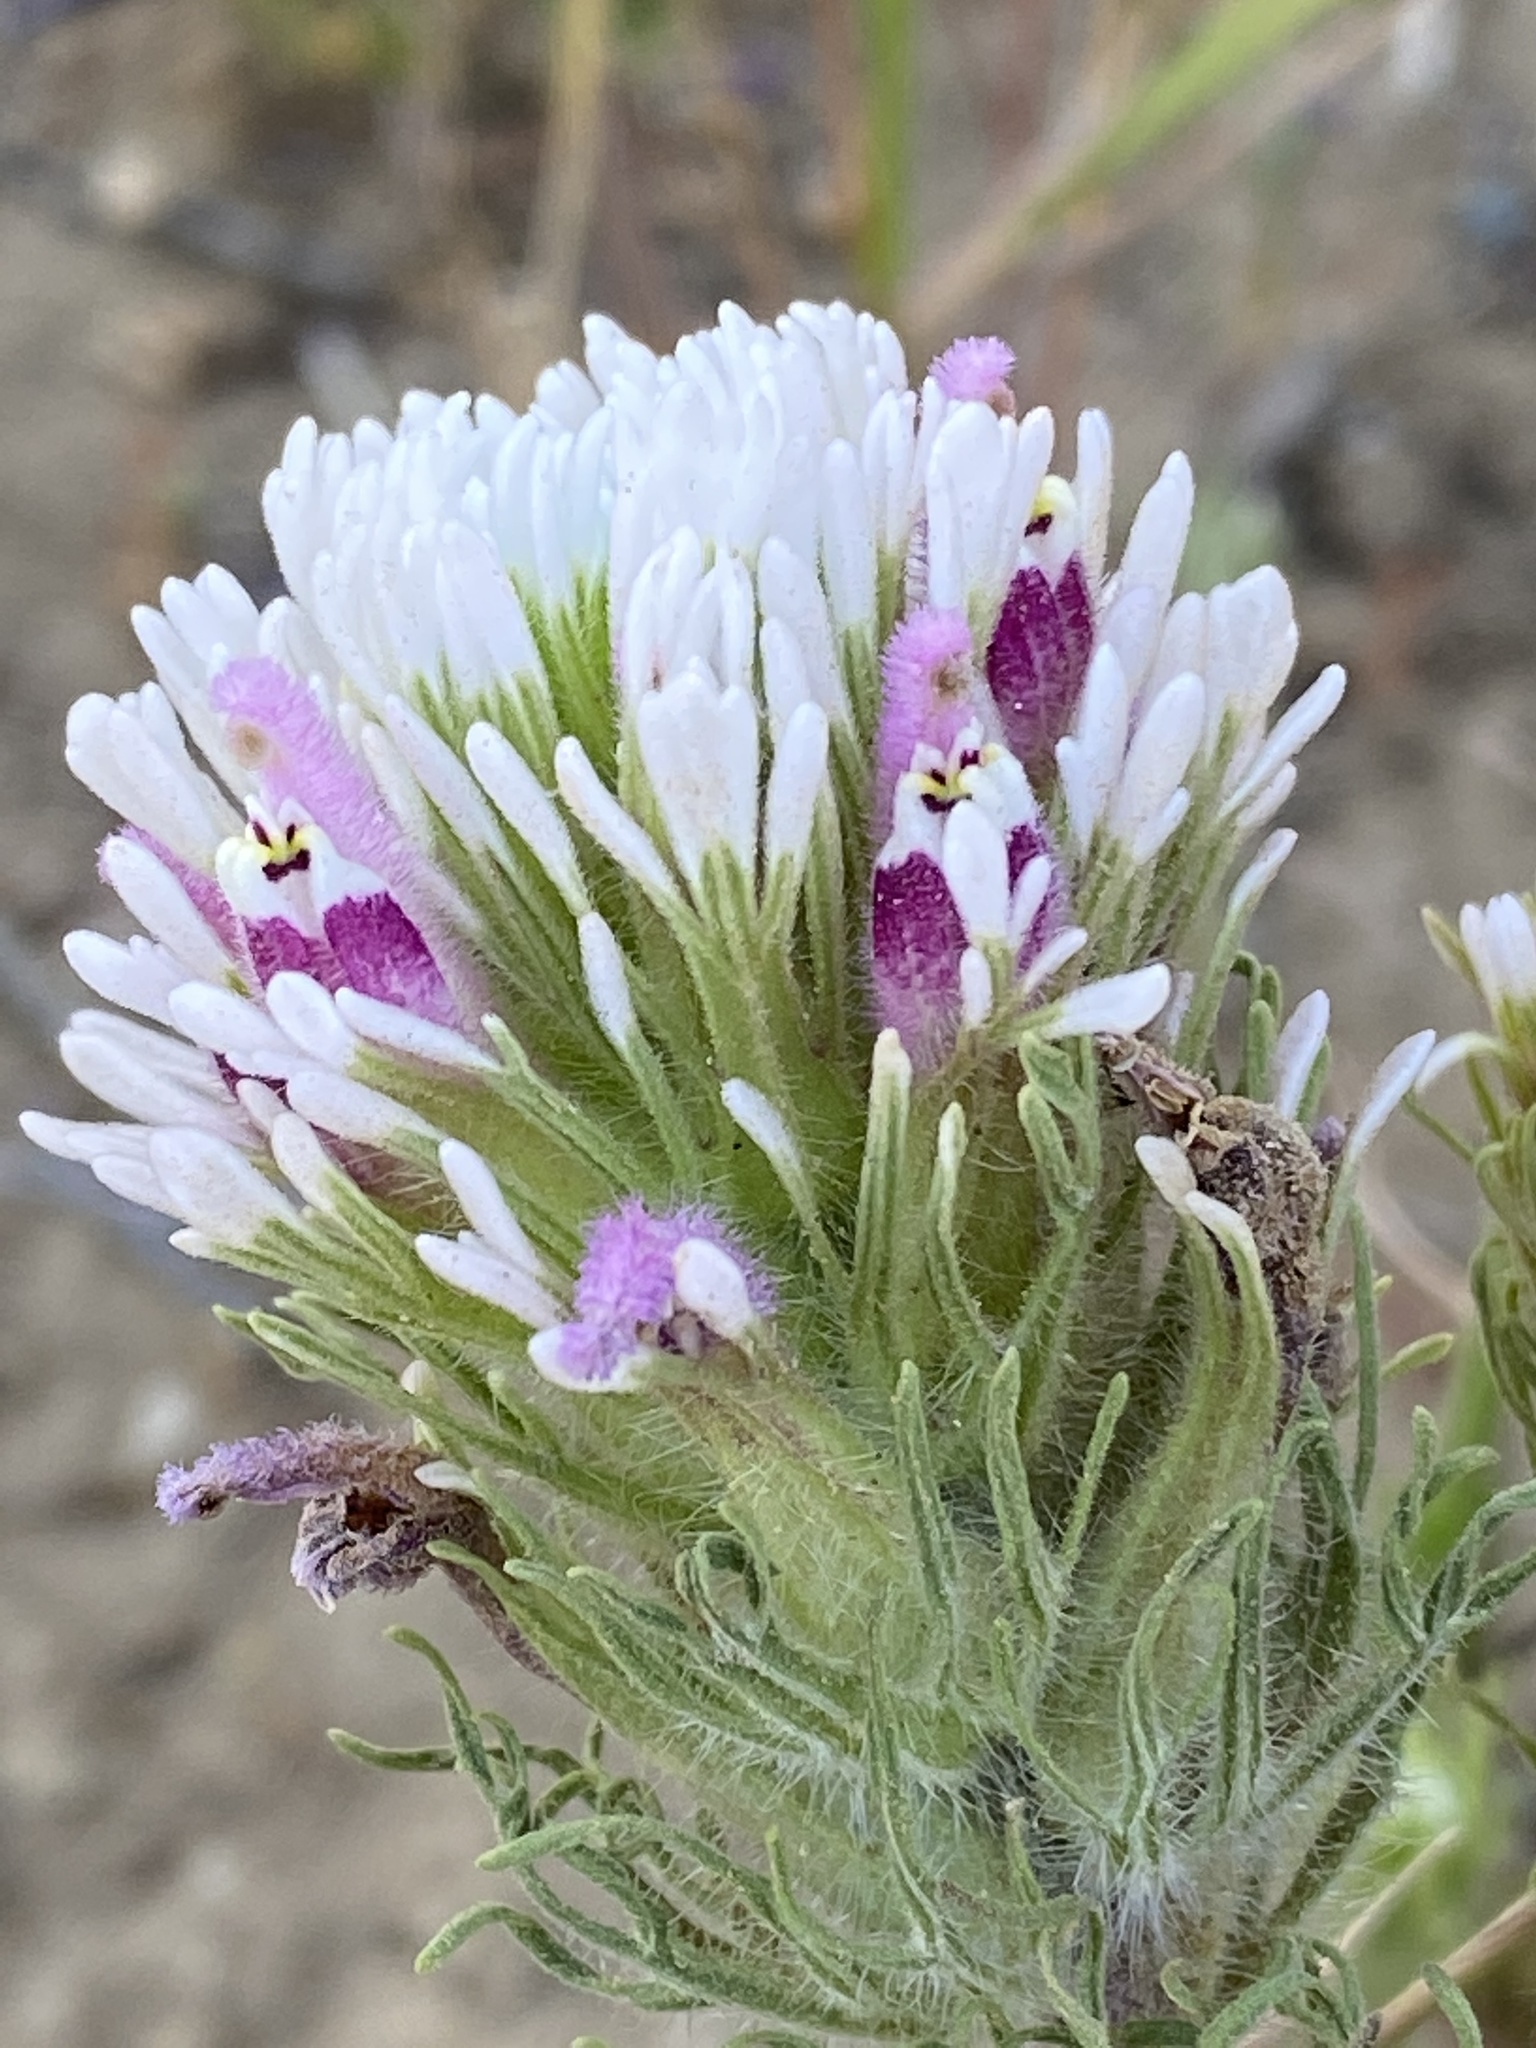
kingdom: Plantae
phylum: Tracheophyta
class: Magnoliopsida
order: Lamiales
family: Orobanchaceae
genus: Castilleja
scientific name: Castilleja exserta
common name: Purple owl-clover
